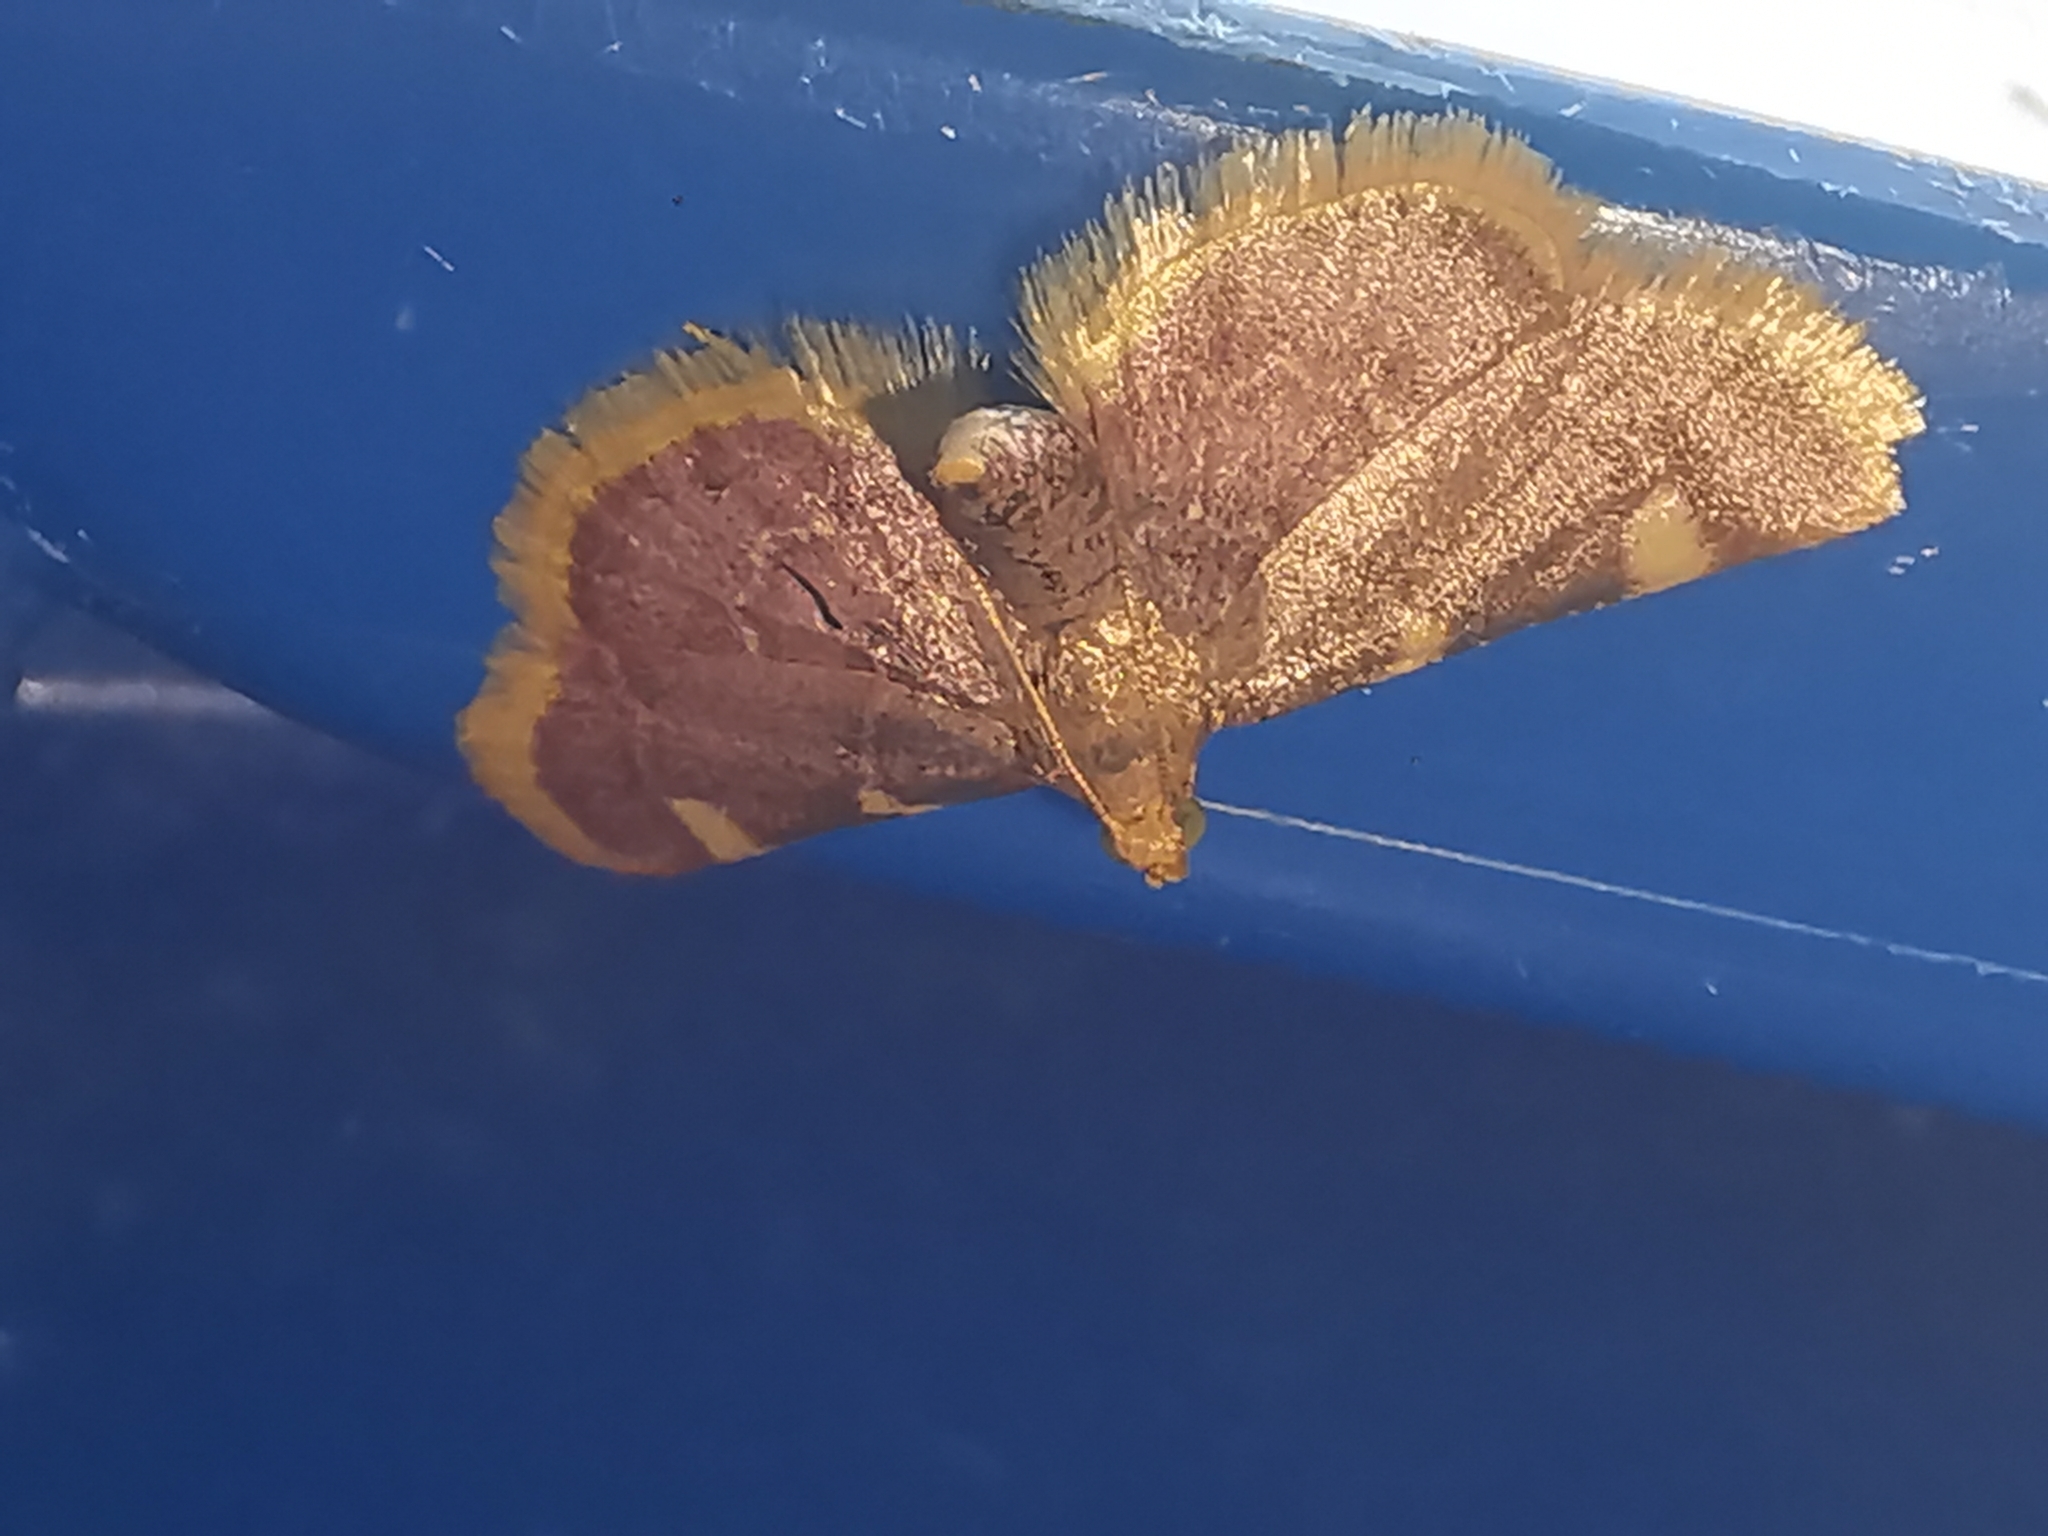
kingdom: Animalia
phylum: Arthropoda
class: Insecta
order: Lepidoptera
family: Pyralidae
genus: Hypsopygia
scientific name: Hypsopygia costalis
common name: Gold triangle
